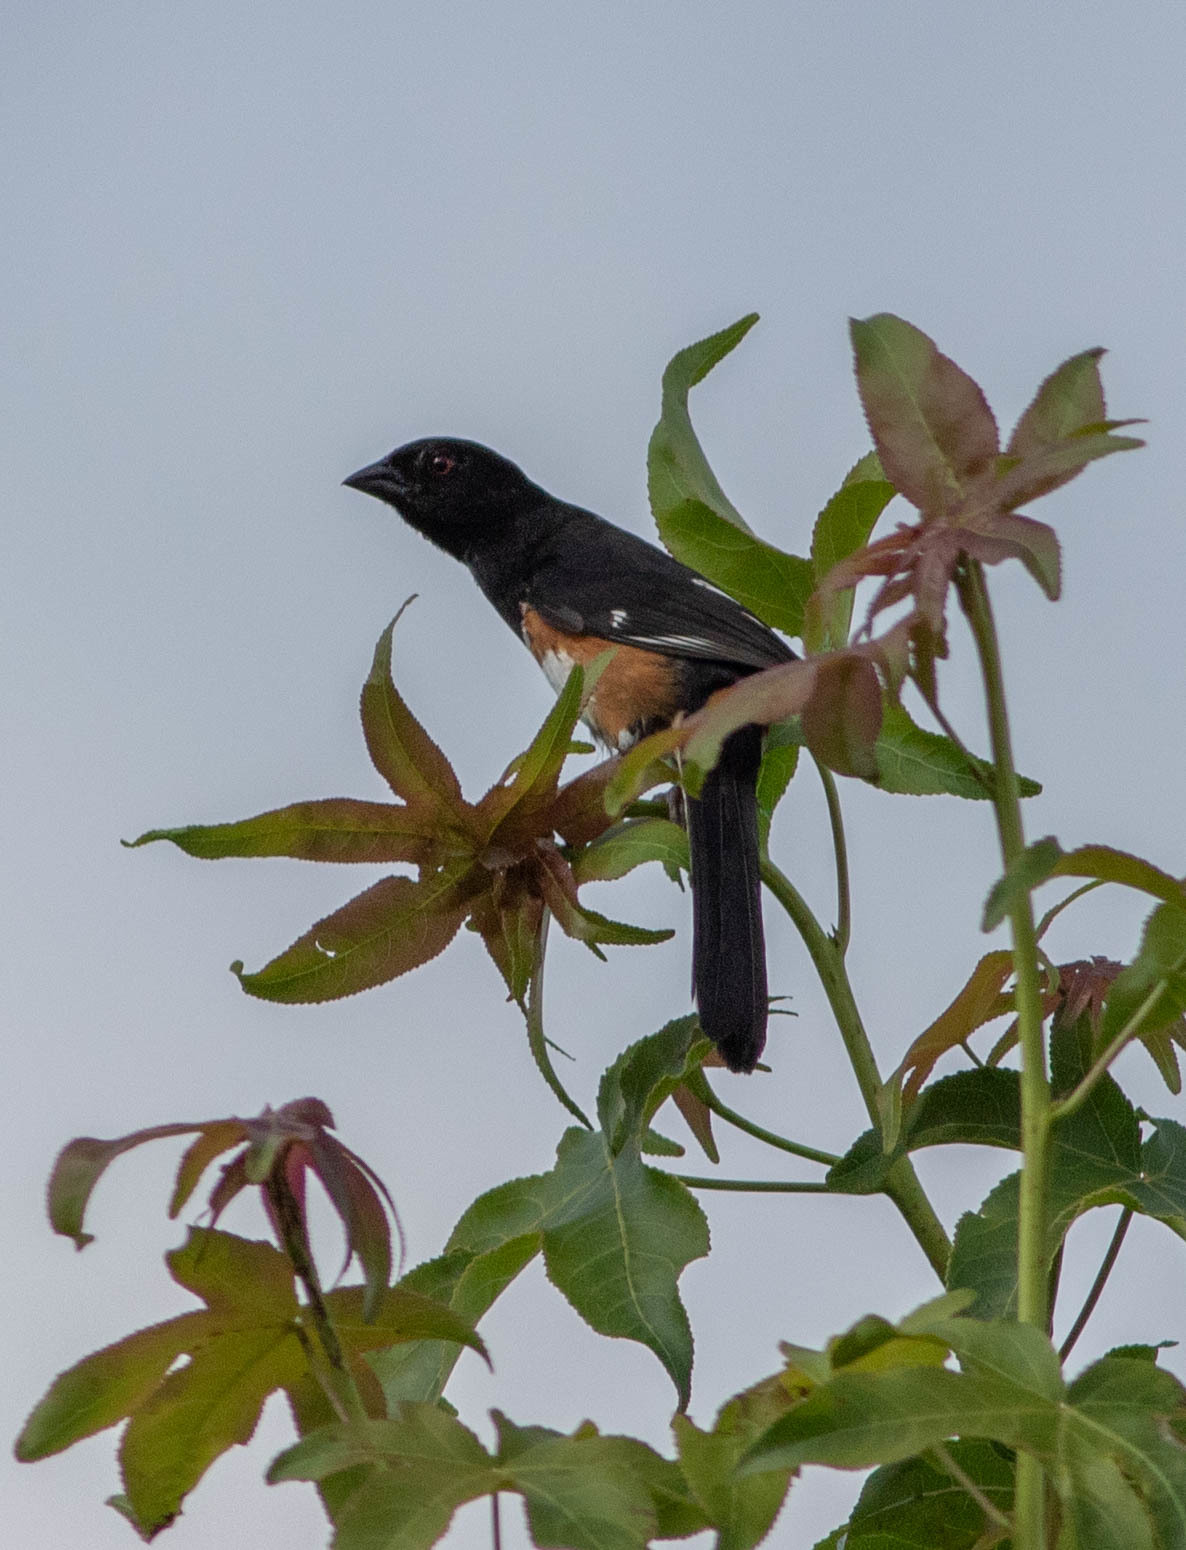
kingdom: Animalia
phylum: Chordata
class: Aves
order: Passeriformes
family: Passerellidae
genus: Pipilo
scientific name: Pipilo erythrophthalmus
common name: Eastern towhee
